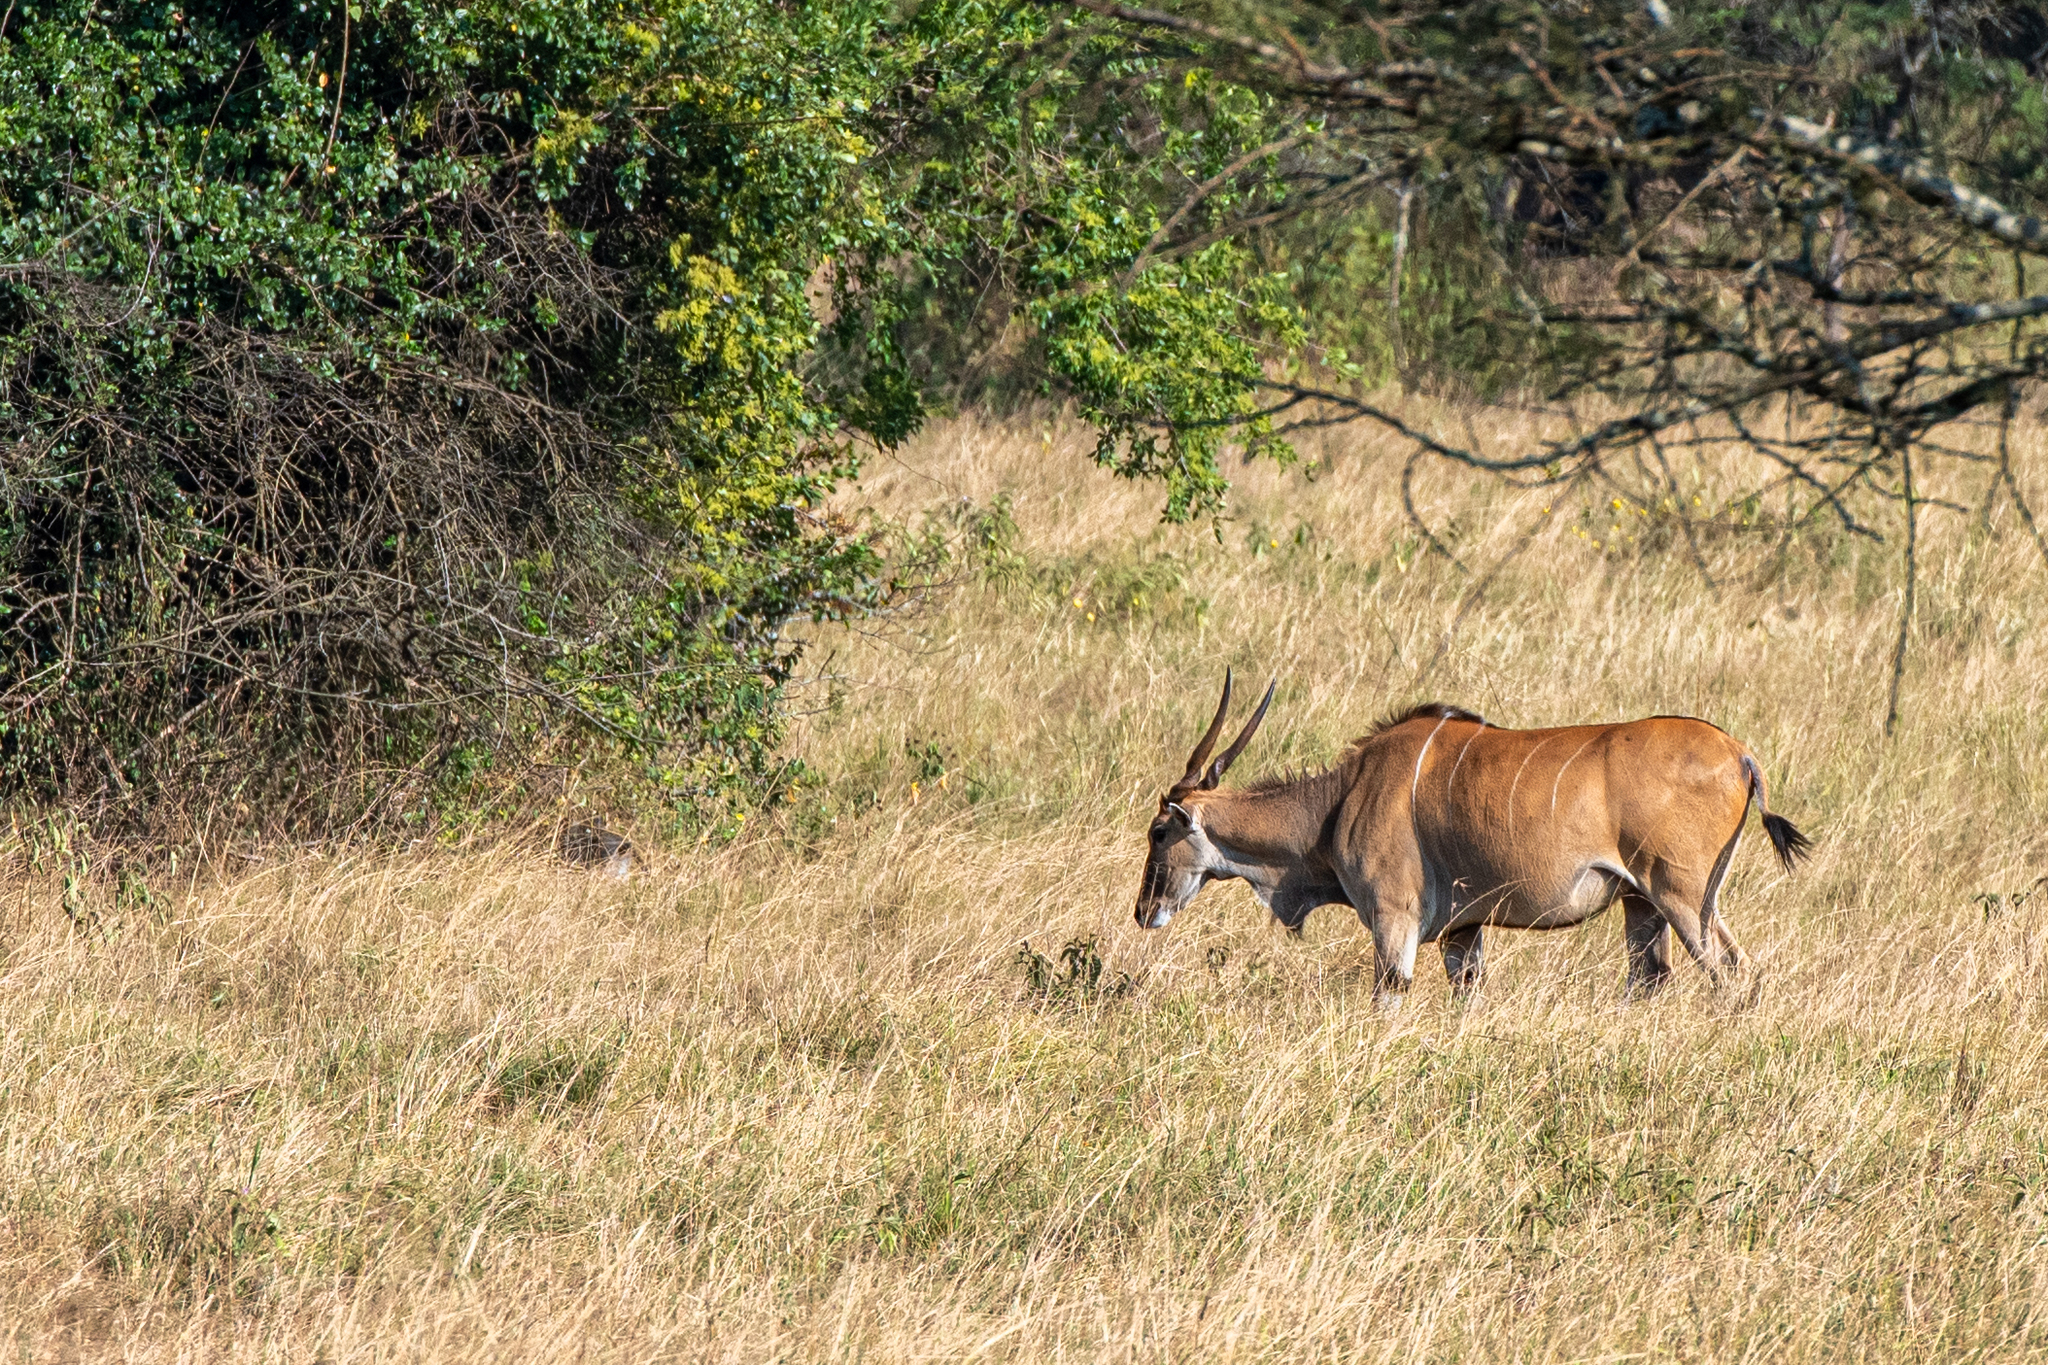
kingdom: Animalia
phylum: Chordata
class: Mammalia
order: Artiodactyla
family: Bovidae
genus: Taurotragus
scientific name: Taurotragus oryx
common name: Common eland
